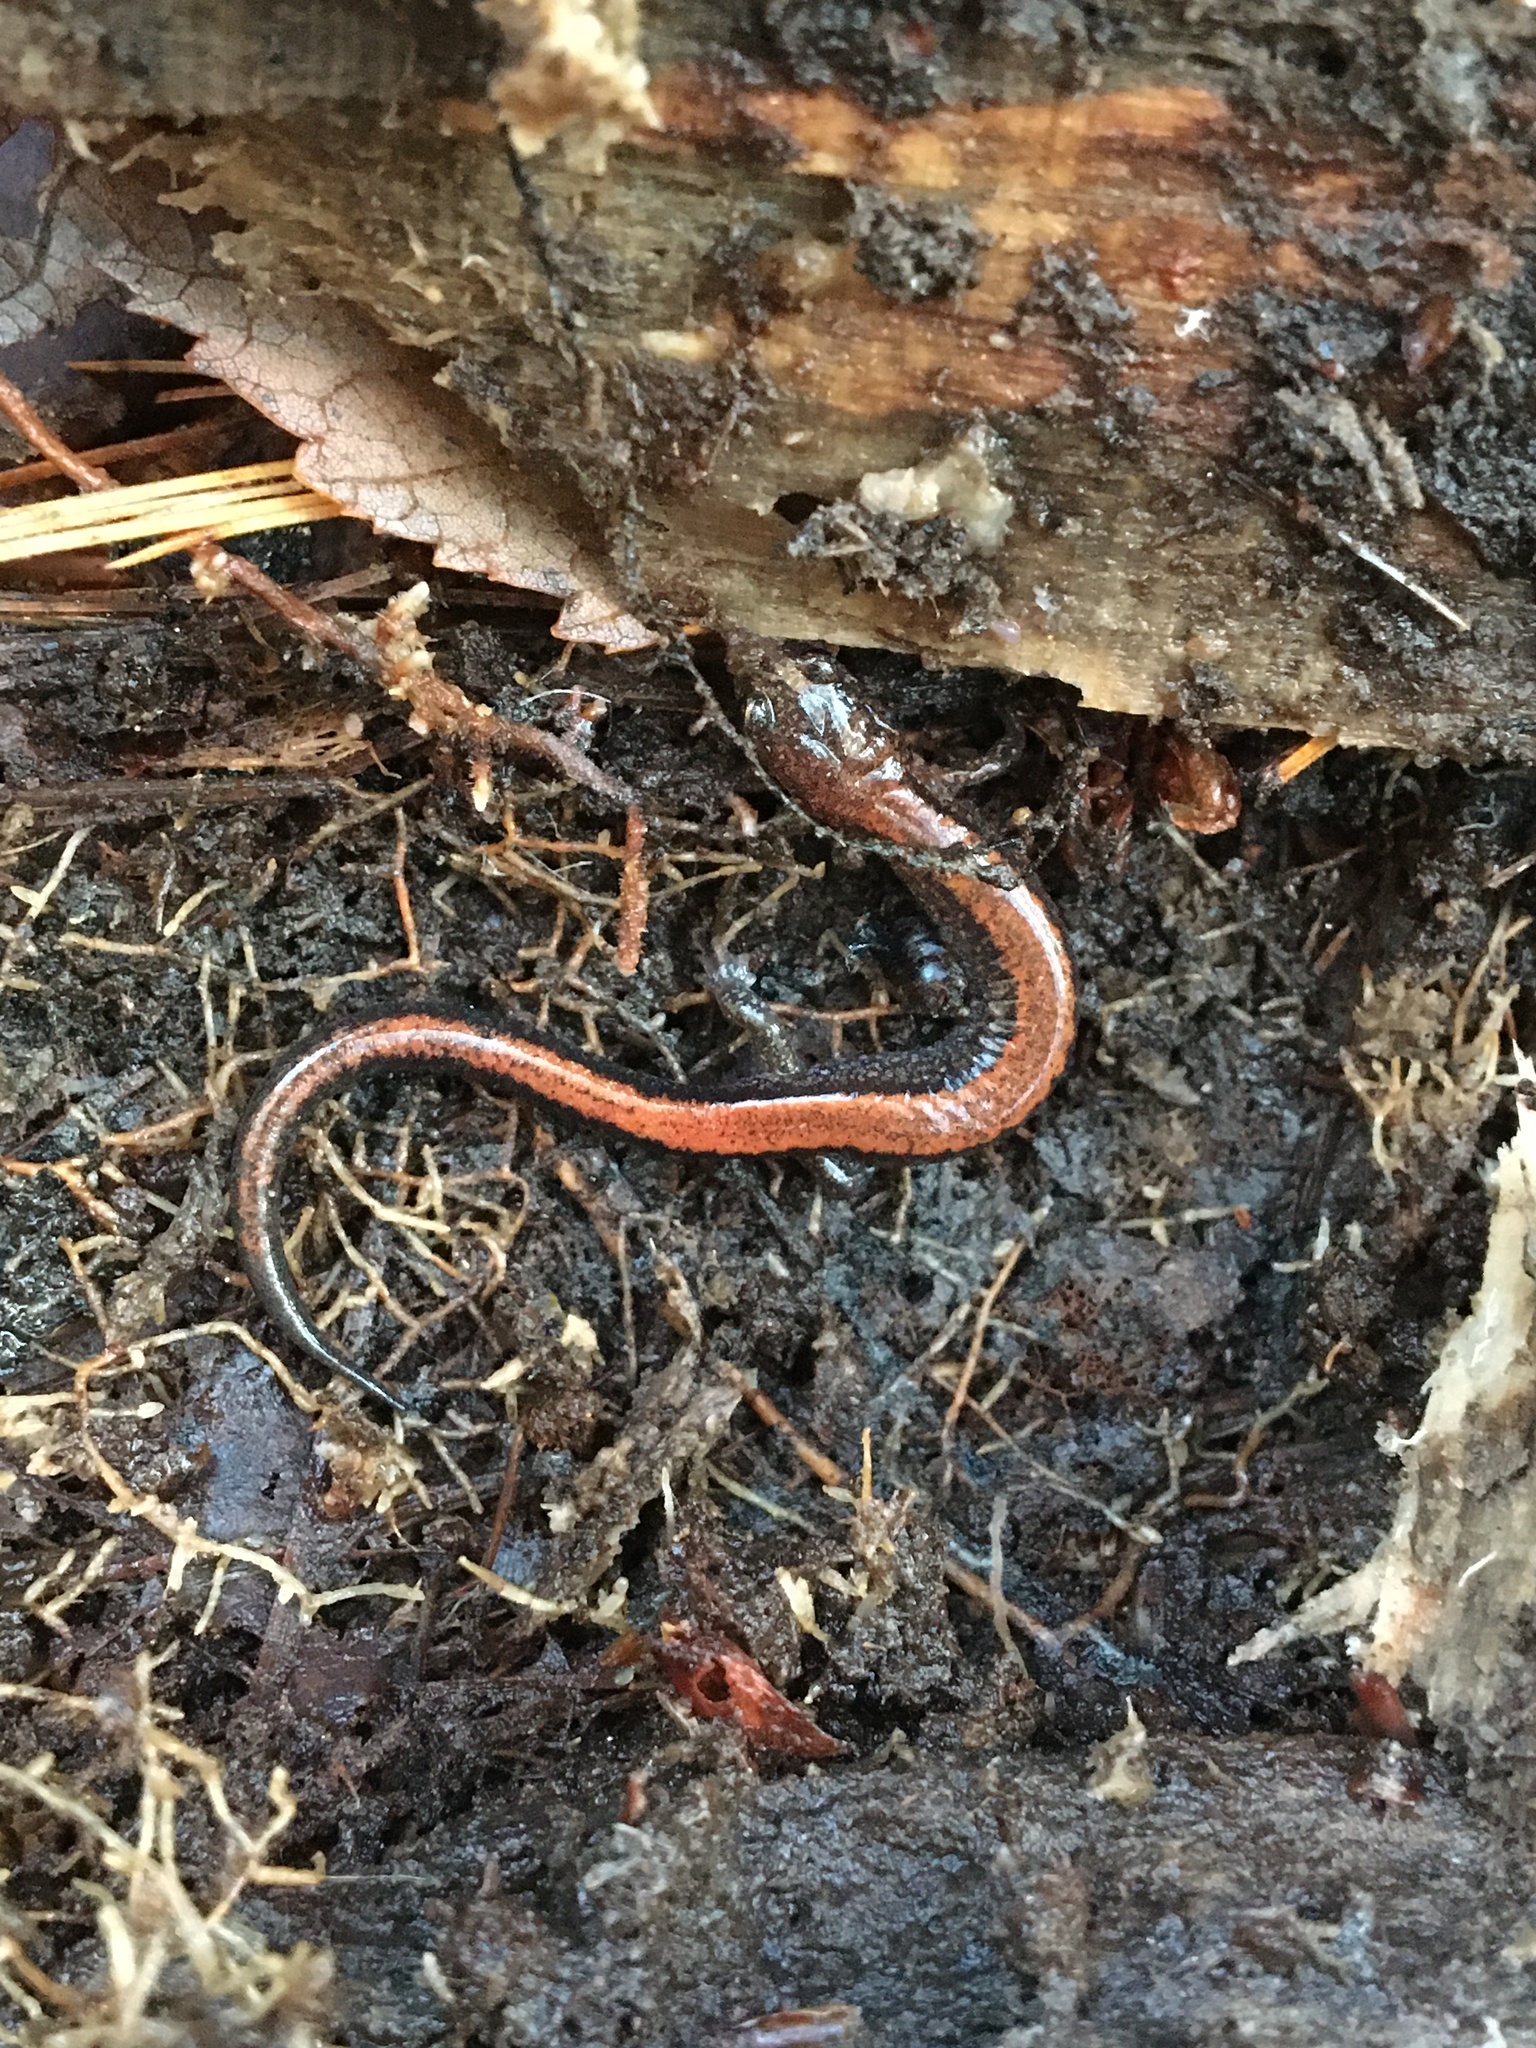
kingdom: Animalia
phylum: Chordata
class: Amphibia
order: Caudata
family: Plethodontidae
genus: Plethodon
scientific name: Plethodon cinereus
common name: Redback salamander
